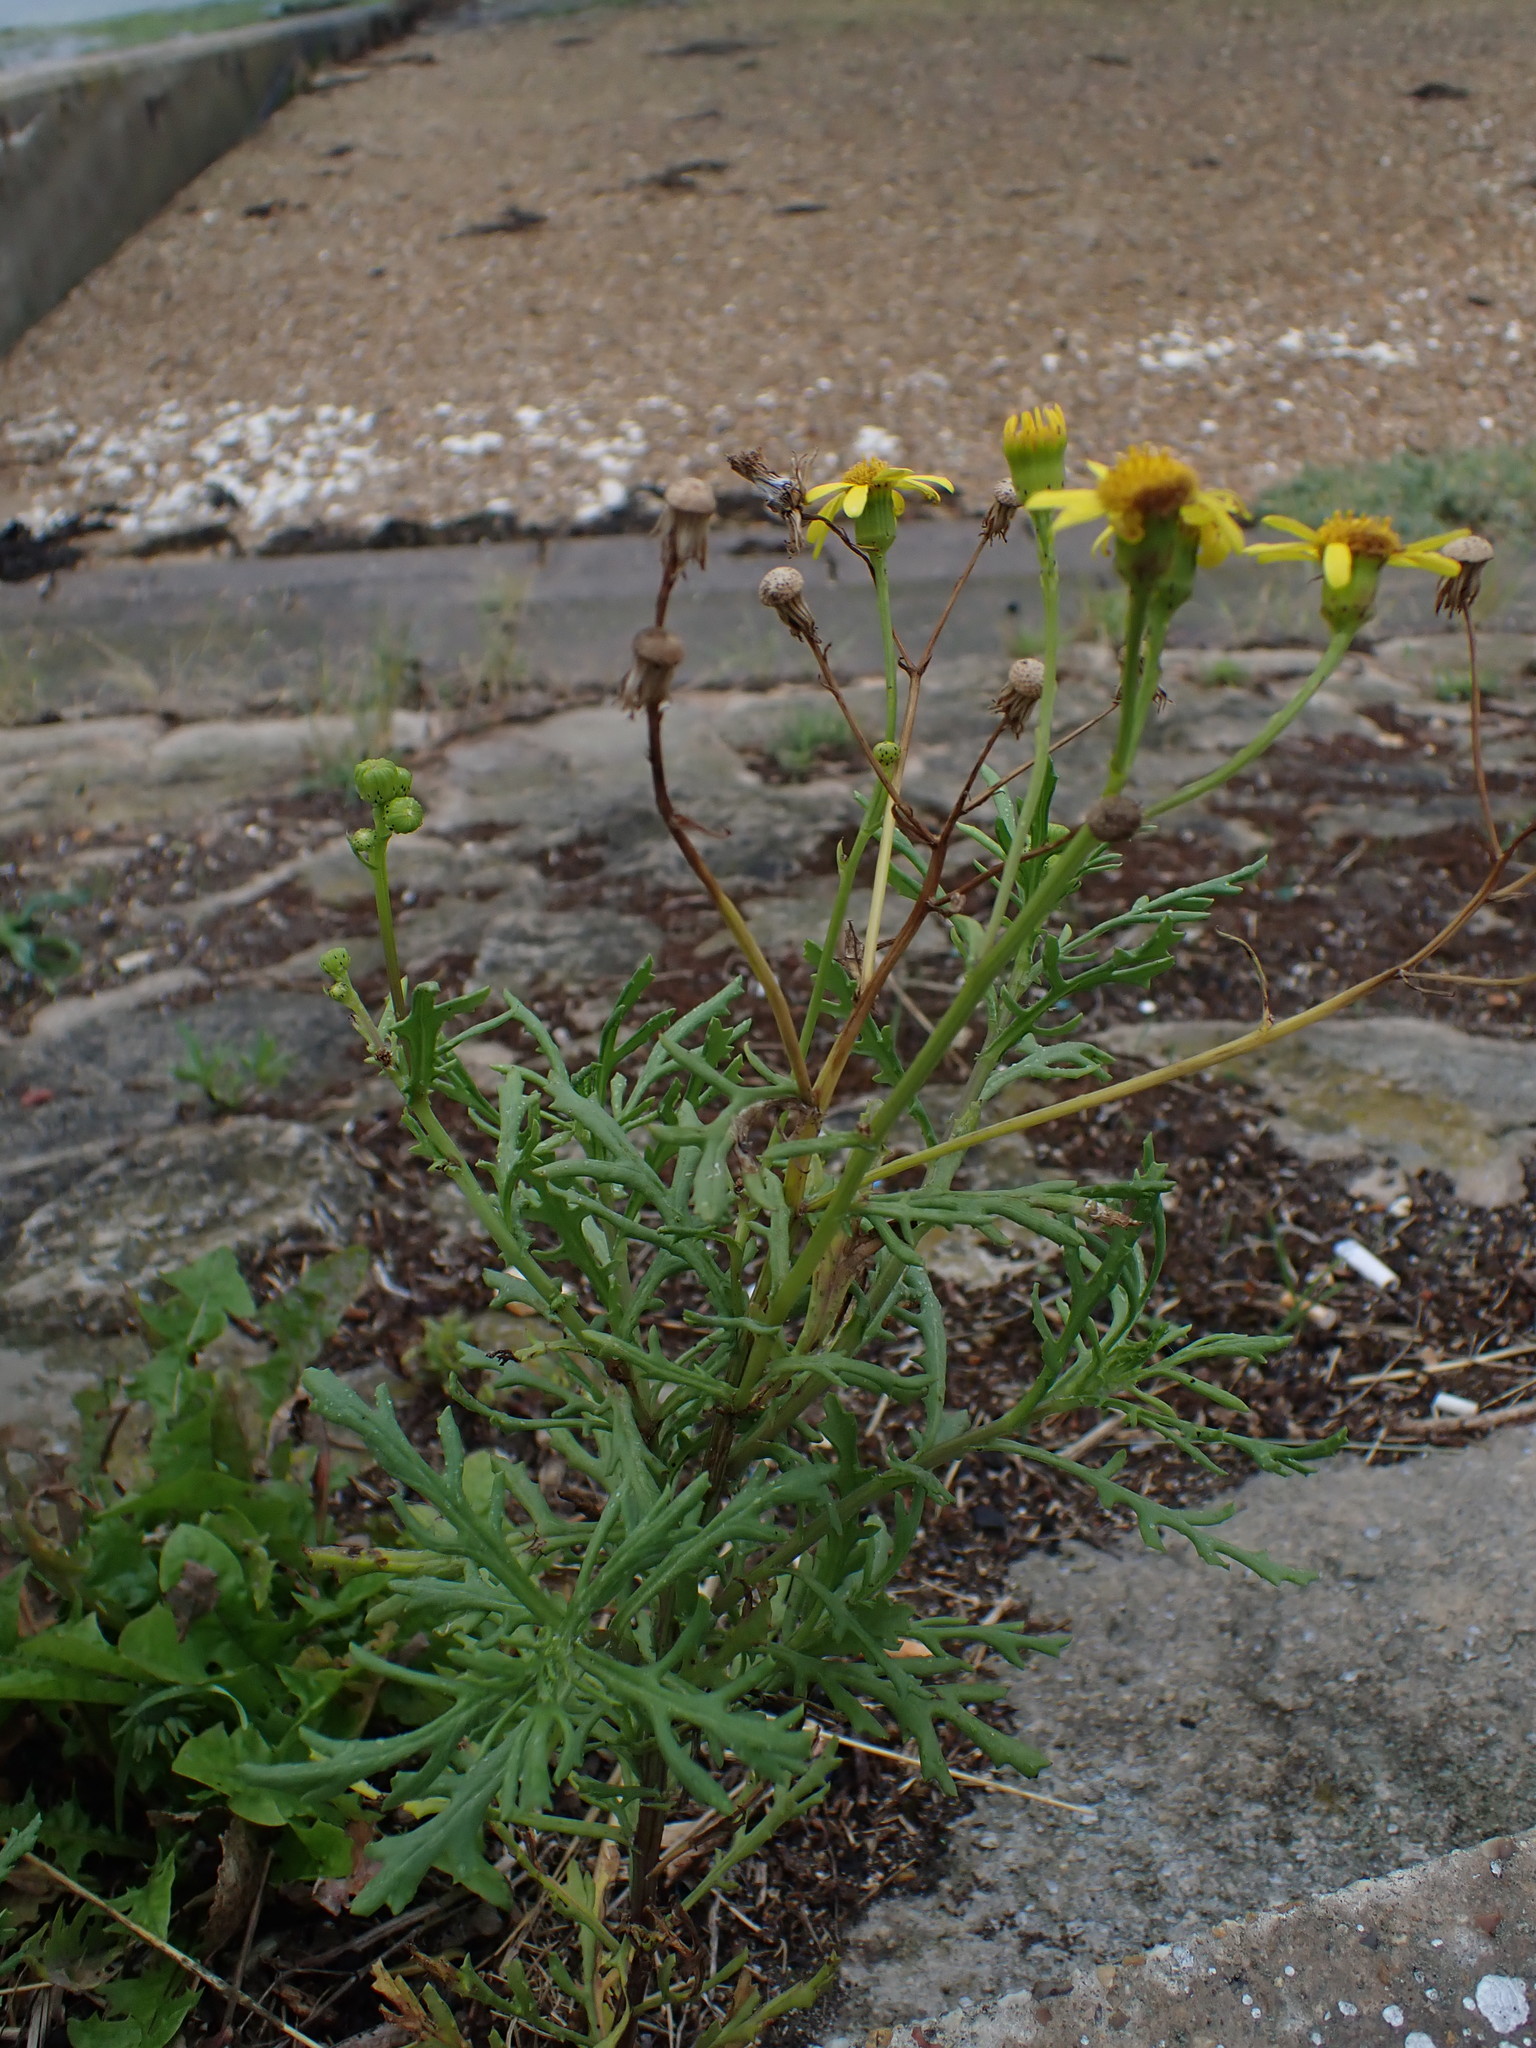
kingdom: Plantae
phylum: Tracheophyta
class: Magnoliopsida
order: Asterales
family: Asteraceae
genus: Senecio
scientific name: Senecio squalidus
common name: Oxford ragwort
